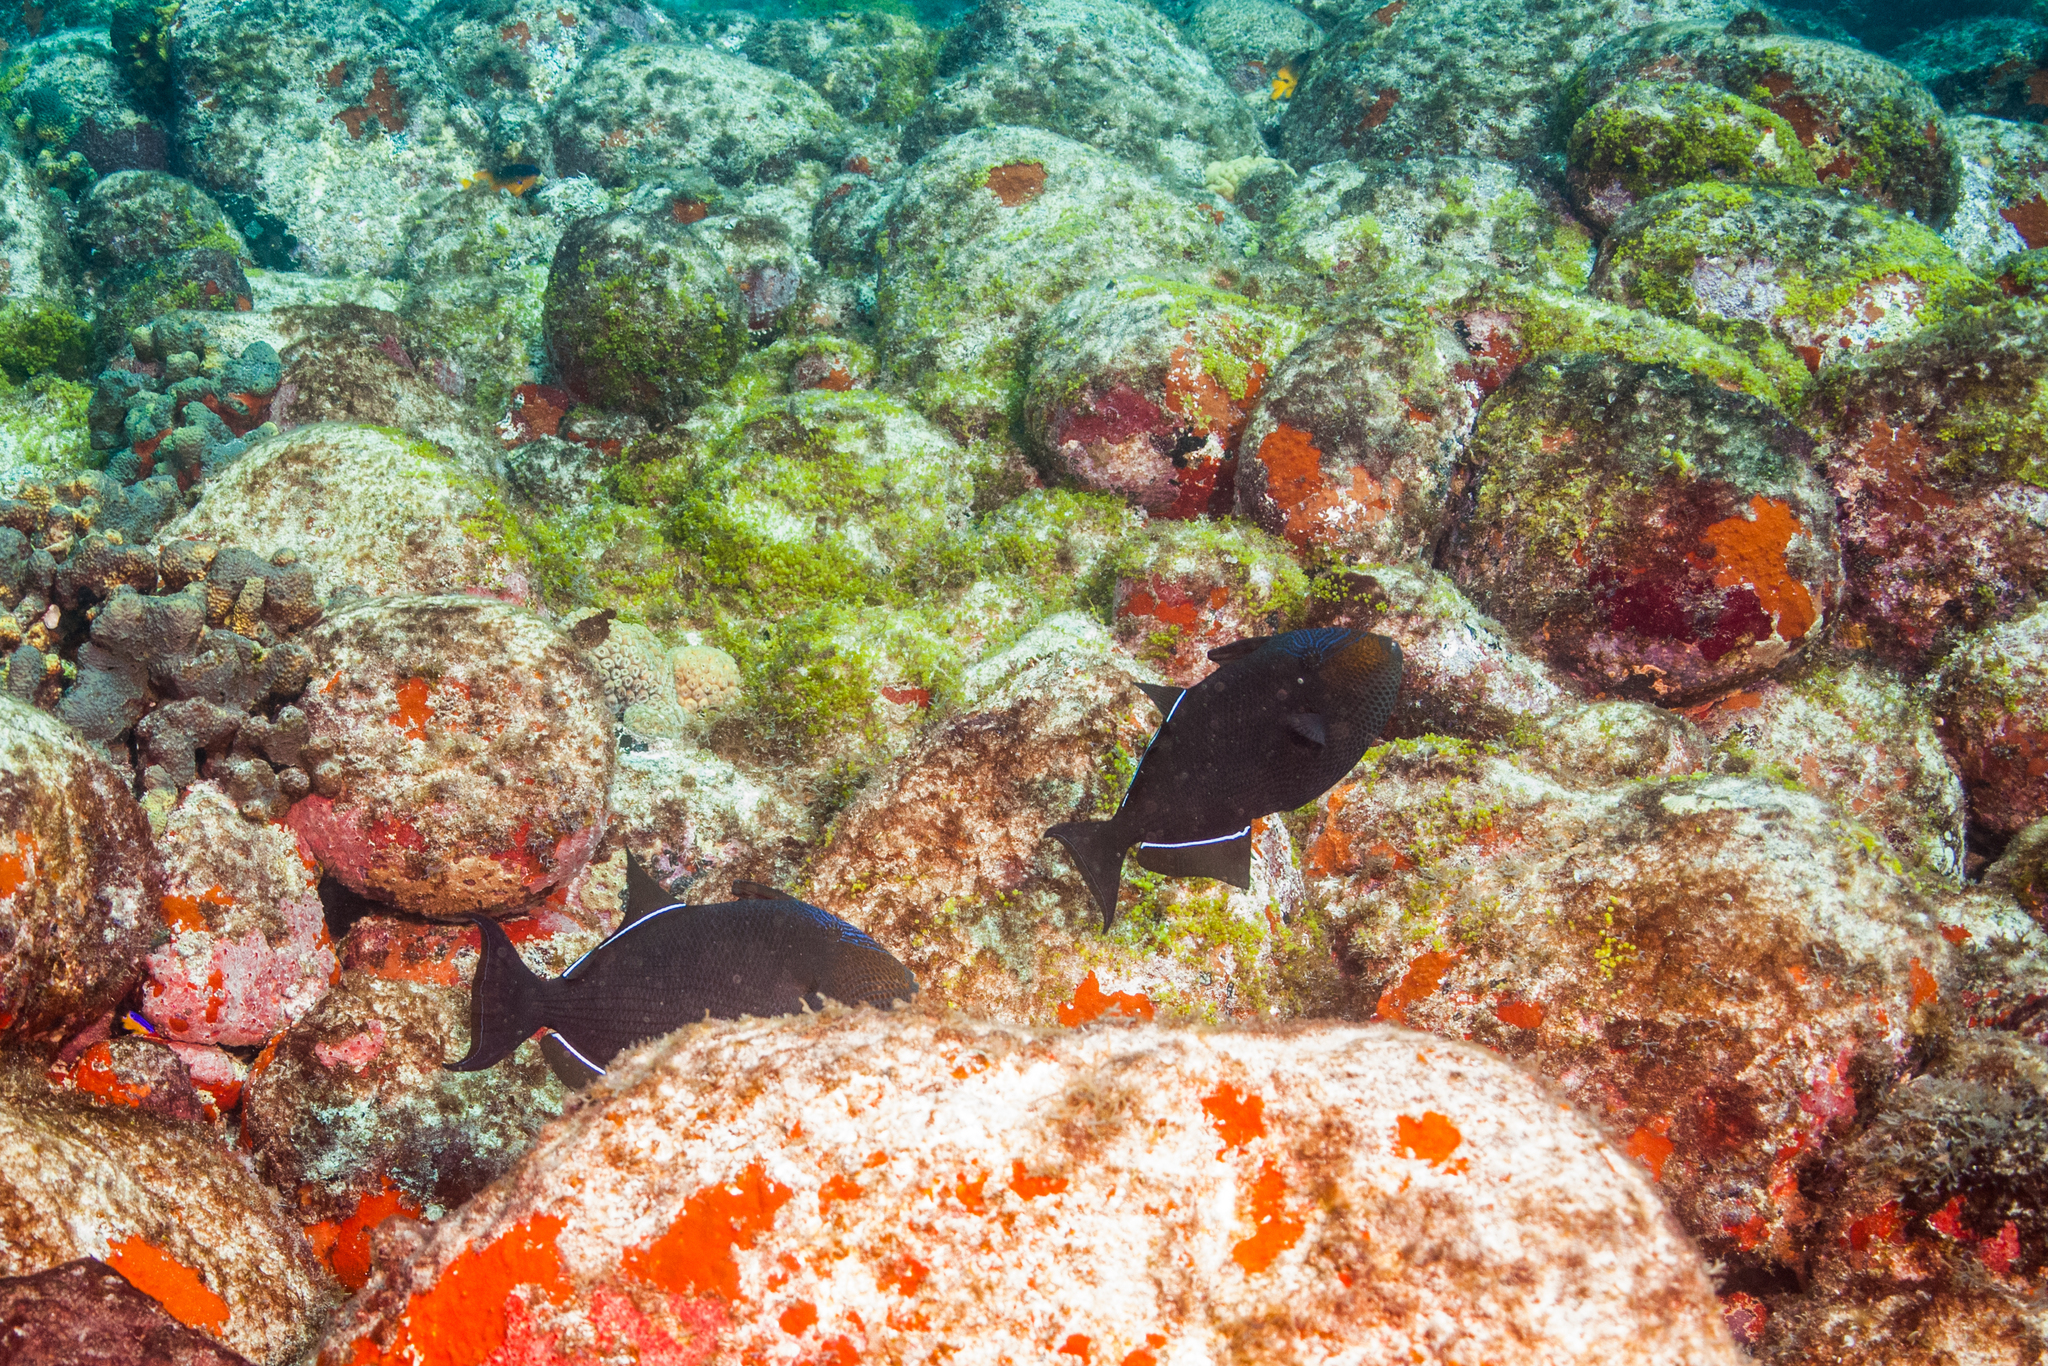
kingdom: Animalia
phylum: Chordata
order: Tetraodontiformes
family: Balistidae
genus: Melichthys
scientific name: Melichthys niger
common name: Black durgon
